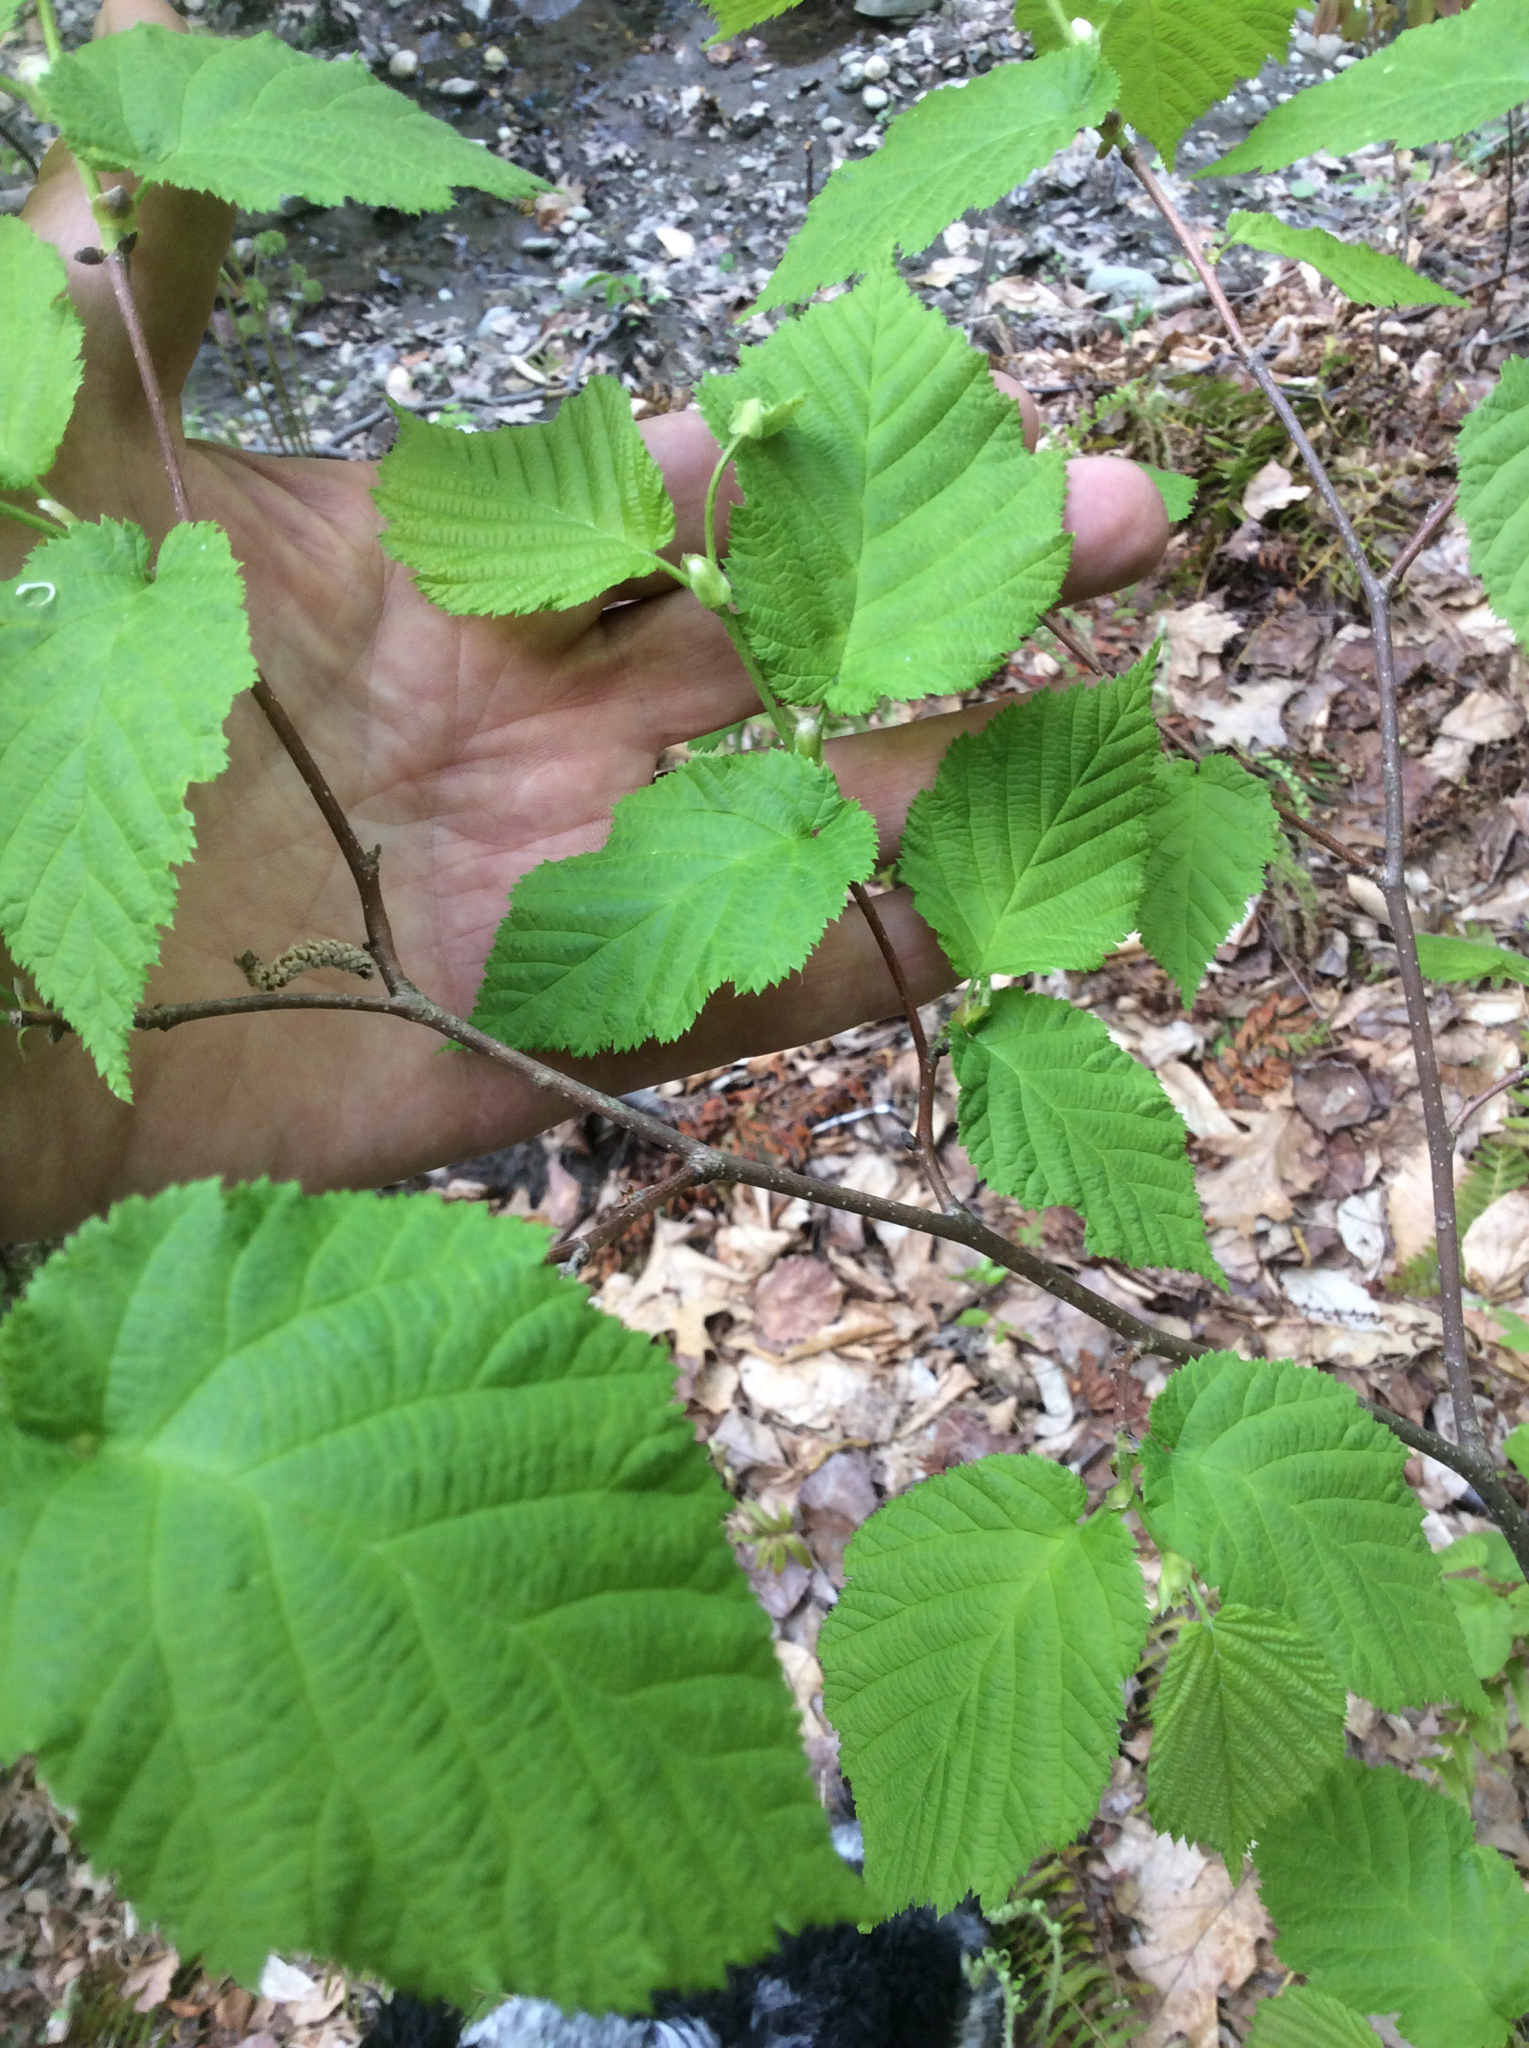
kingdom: Plantae
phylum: Tracheophyta
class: Magnoliopsida
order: Fagales
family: Betulaceae
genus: Corylus
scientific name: Corylus cornuta
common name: Beaked hazel
